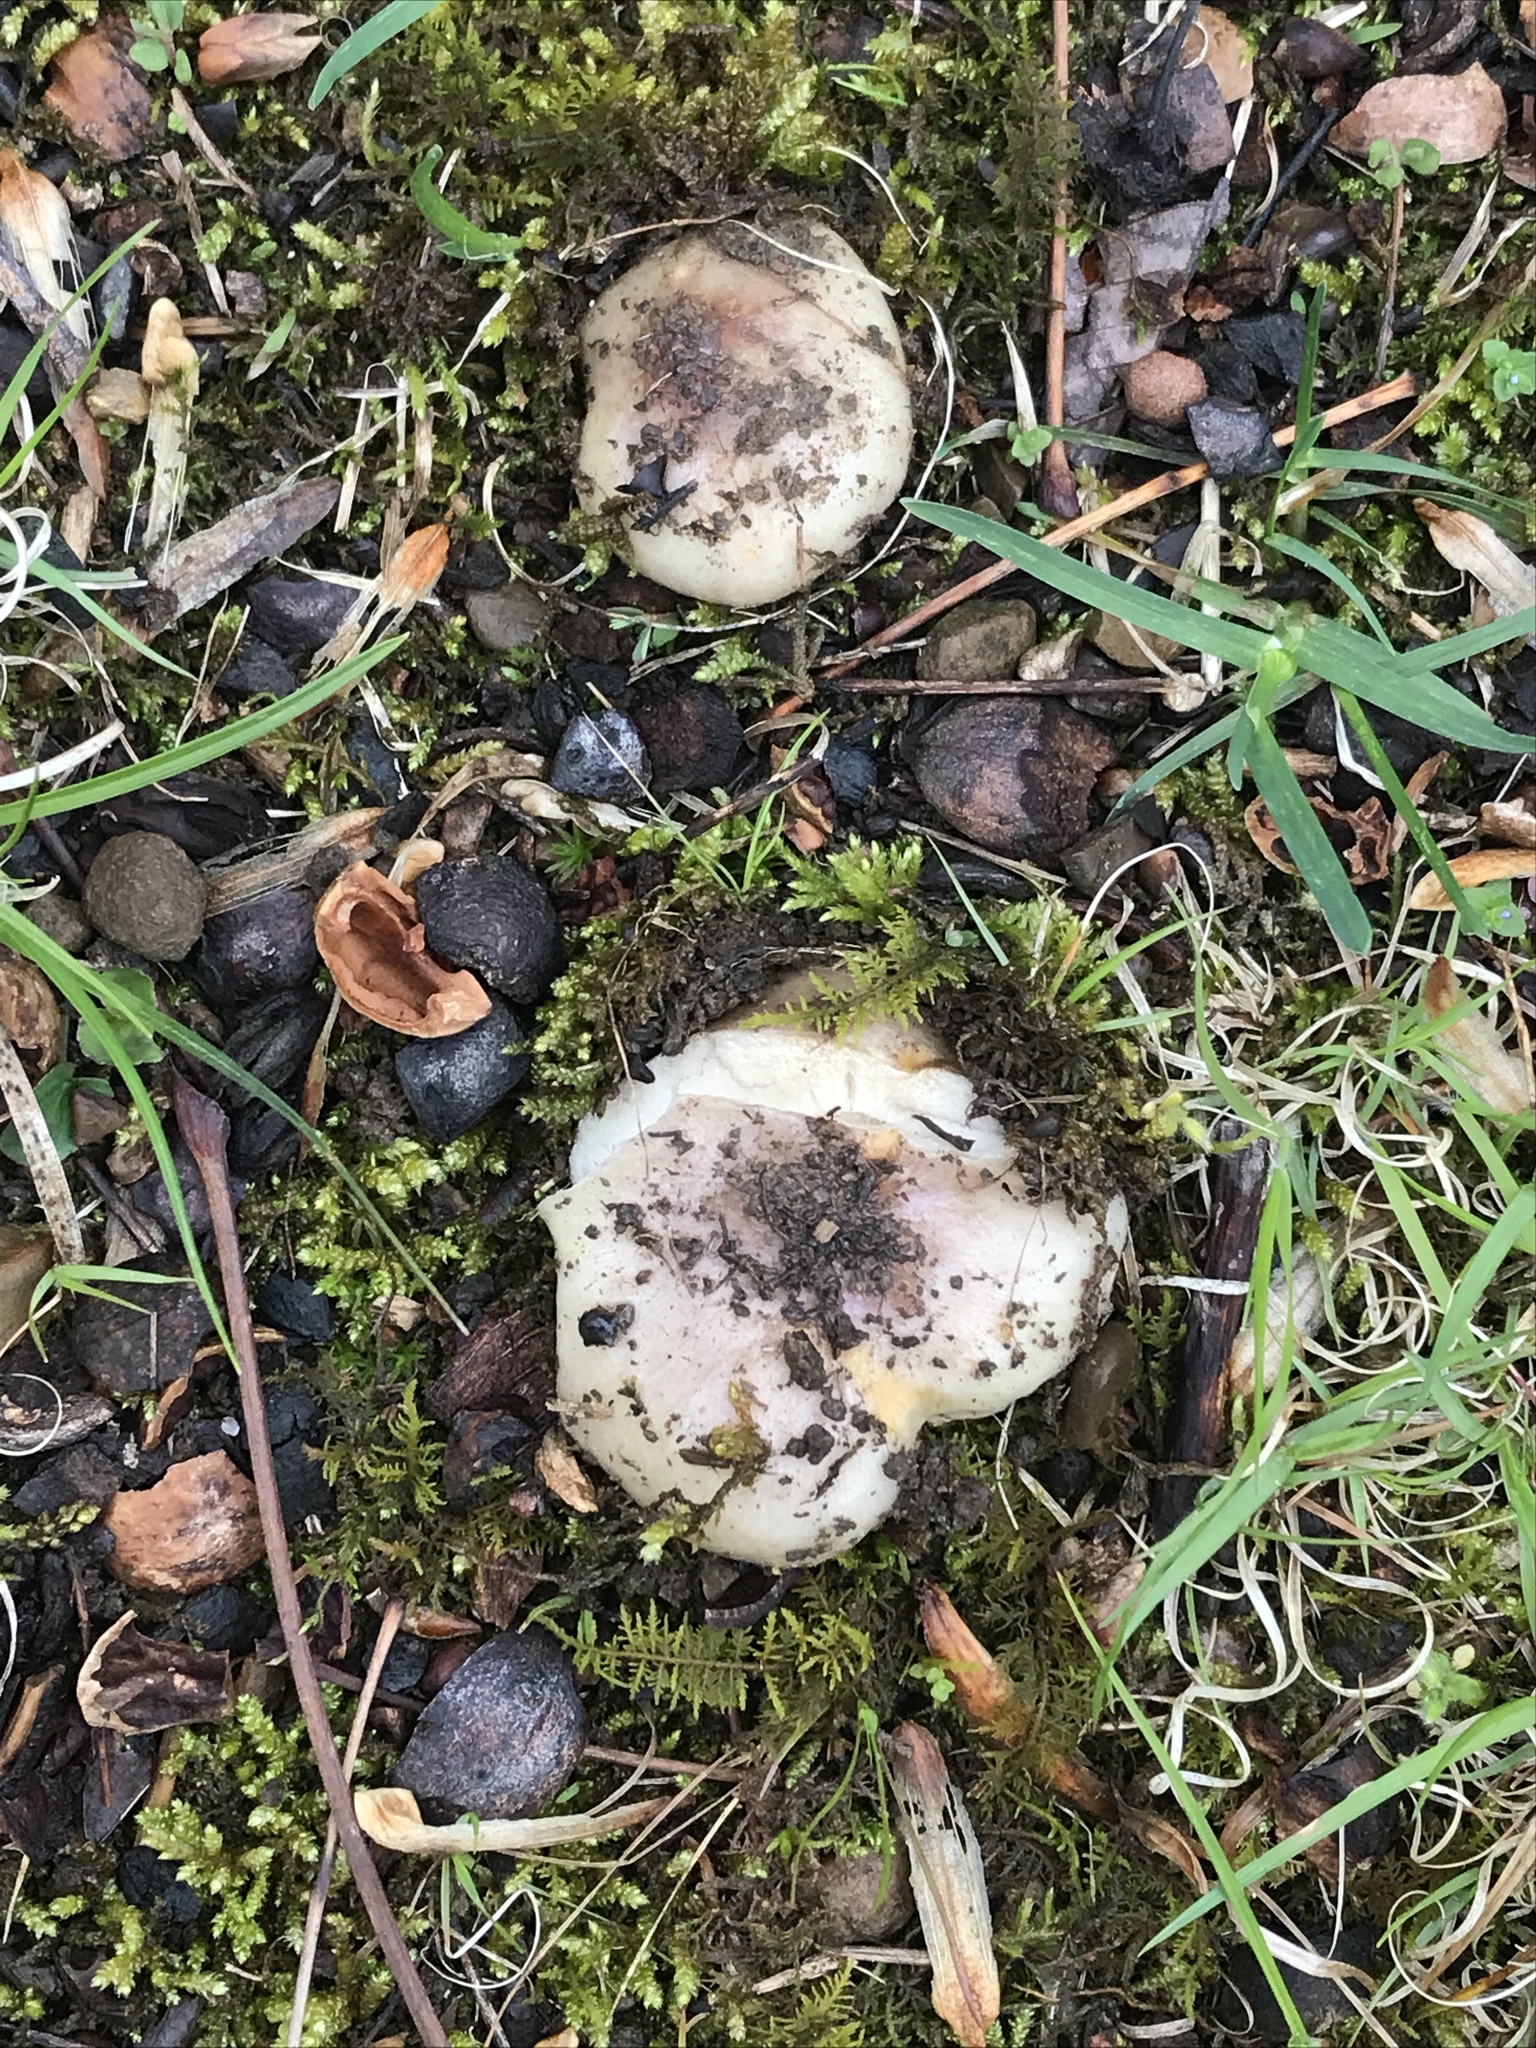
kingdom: Fungi
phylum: Basidiomycota
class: Agaricomycetes
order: Russulales
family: Russulaceae
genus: Russula
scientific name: Russula cyanoxantha
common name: Charcoal burner
